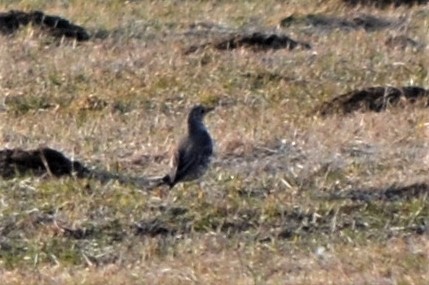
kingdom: Animalia
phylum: Chordata
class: Aves
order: Passeriformes
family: Turdidae
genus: Turdus
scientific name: Turdus viscivorus
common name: Mistle thrush
